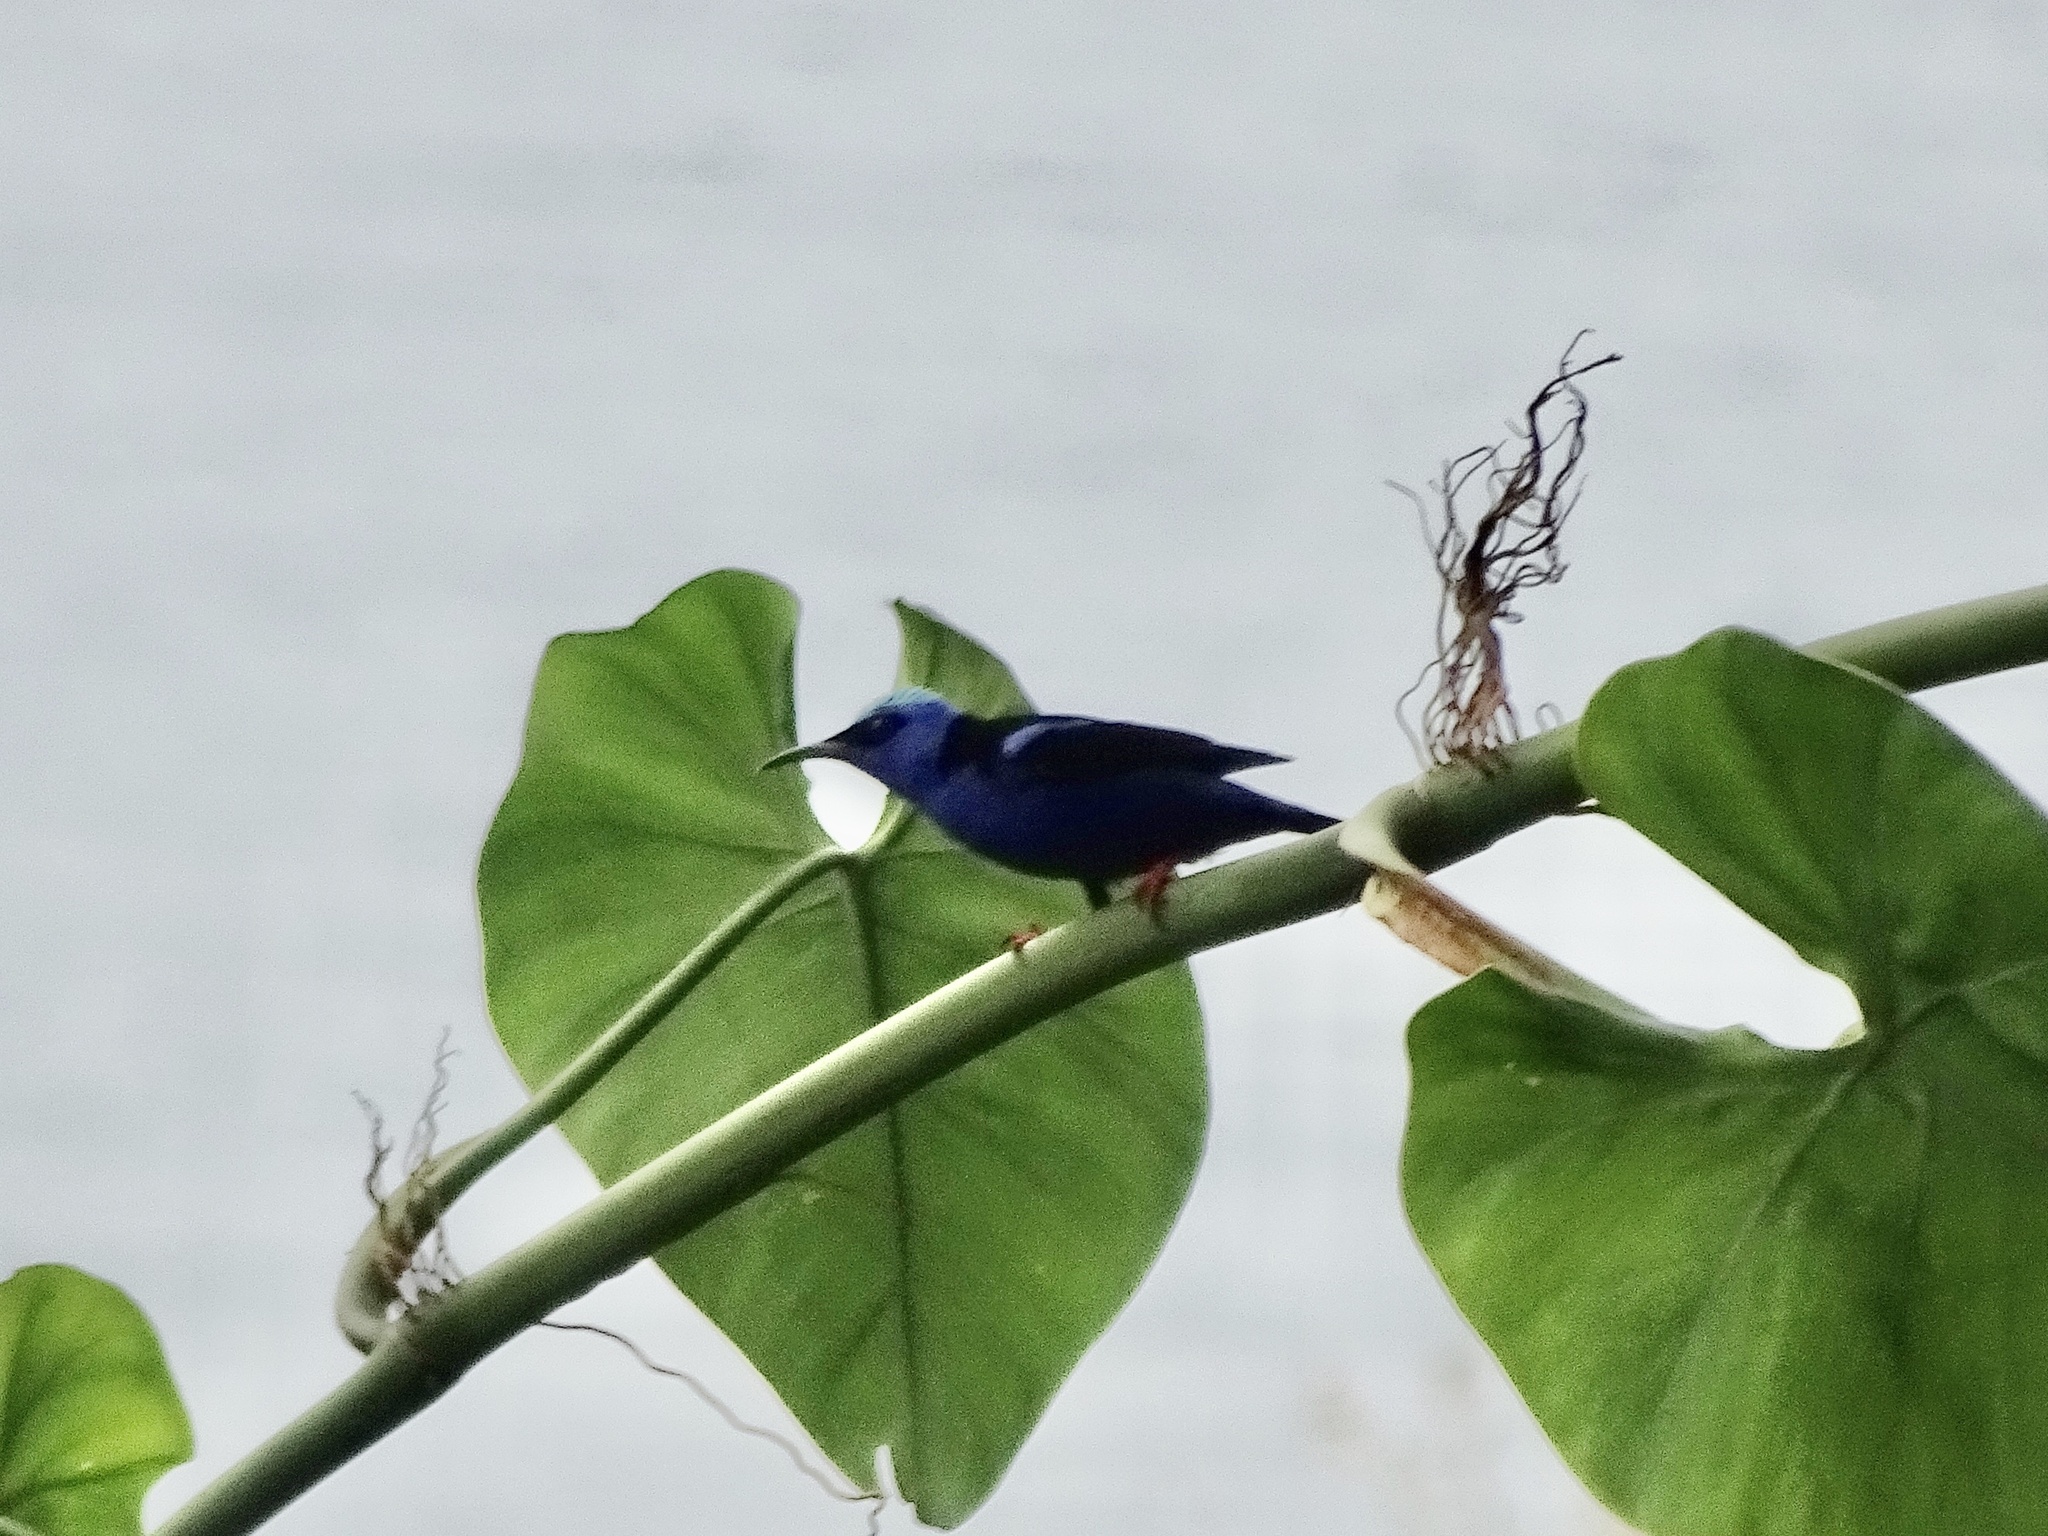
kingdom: Animalia
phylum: Chordata
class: Aves
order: Passeriformes
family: Thraupidae
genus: Cyanerpes
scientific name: Cyanerpes cyaneus
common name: Red-legged honeycreeper
